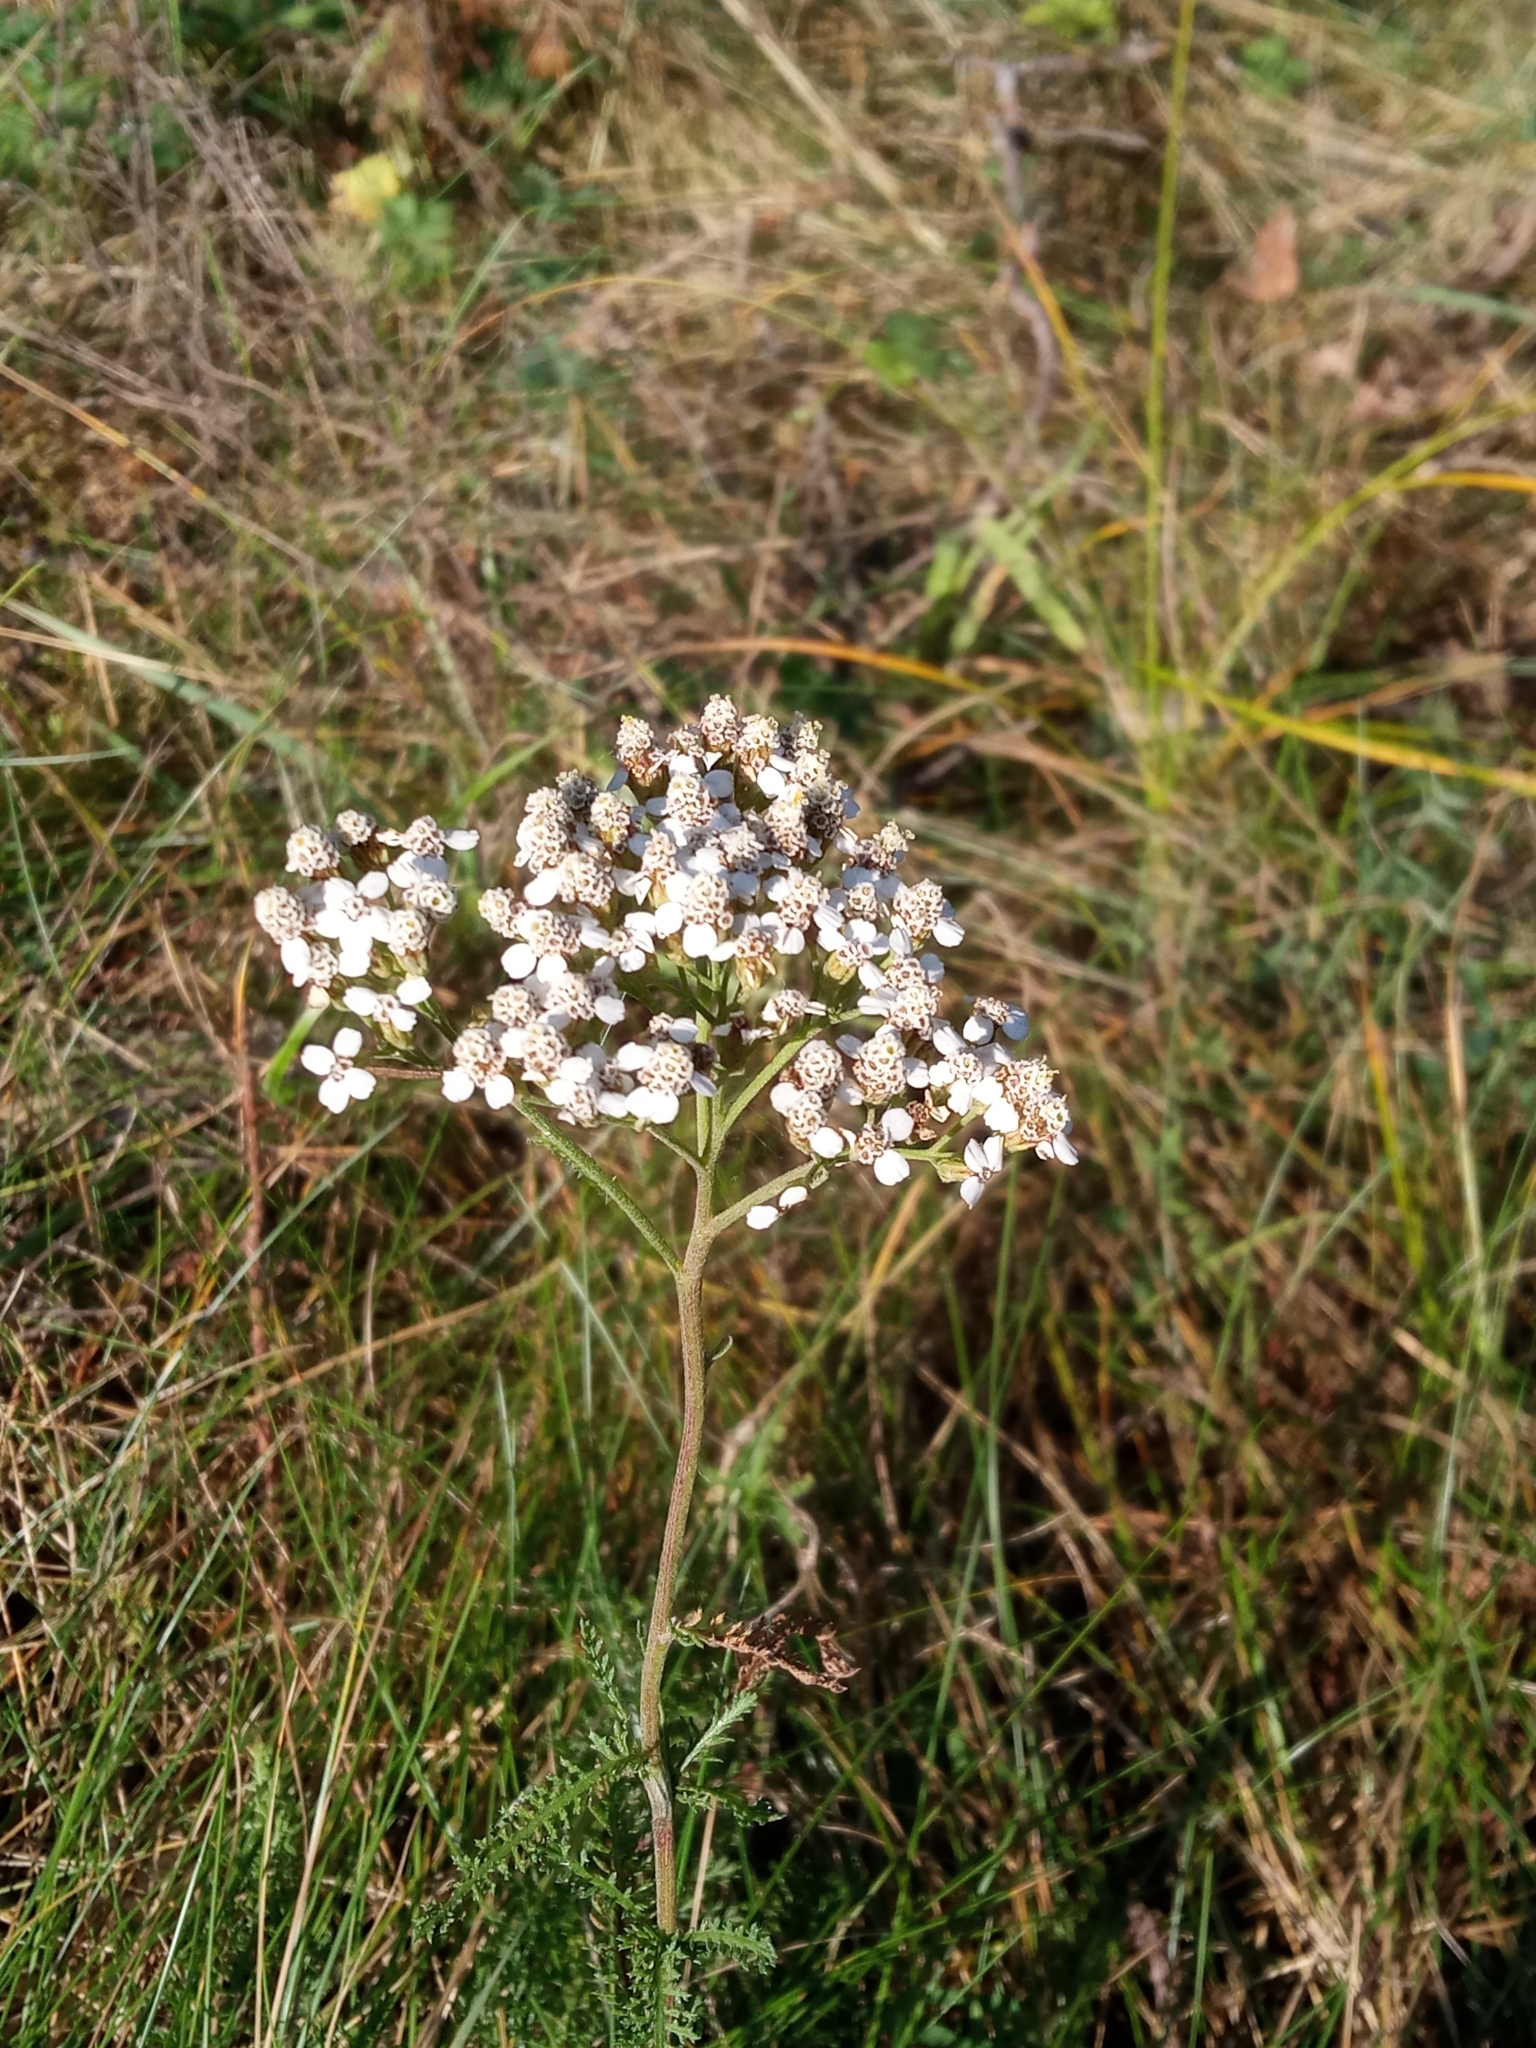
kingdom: Plantae
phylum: Tracheophyta
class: Magnoliopsida
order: Asterales
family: Asteraceae
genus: Achillea
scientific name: Achillea millefolium
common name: Yarrow
